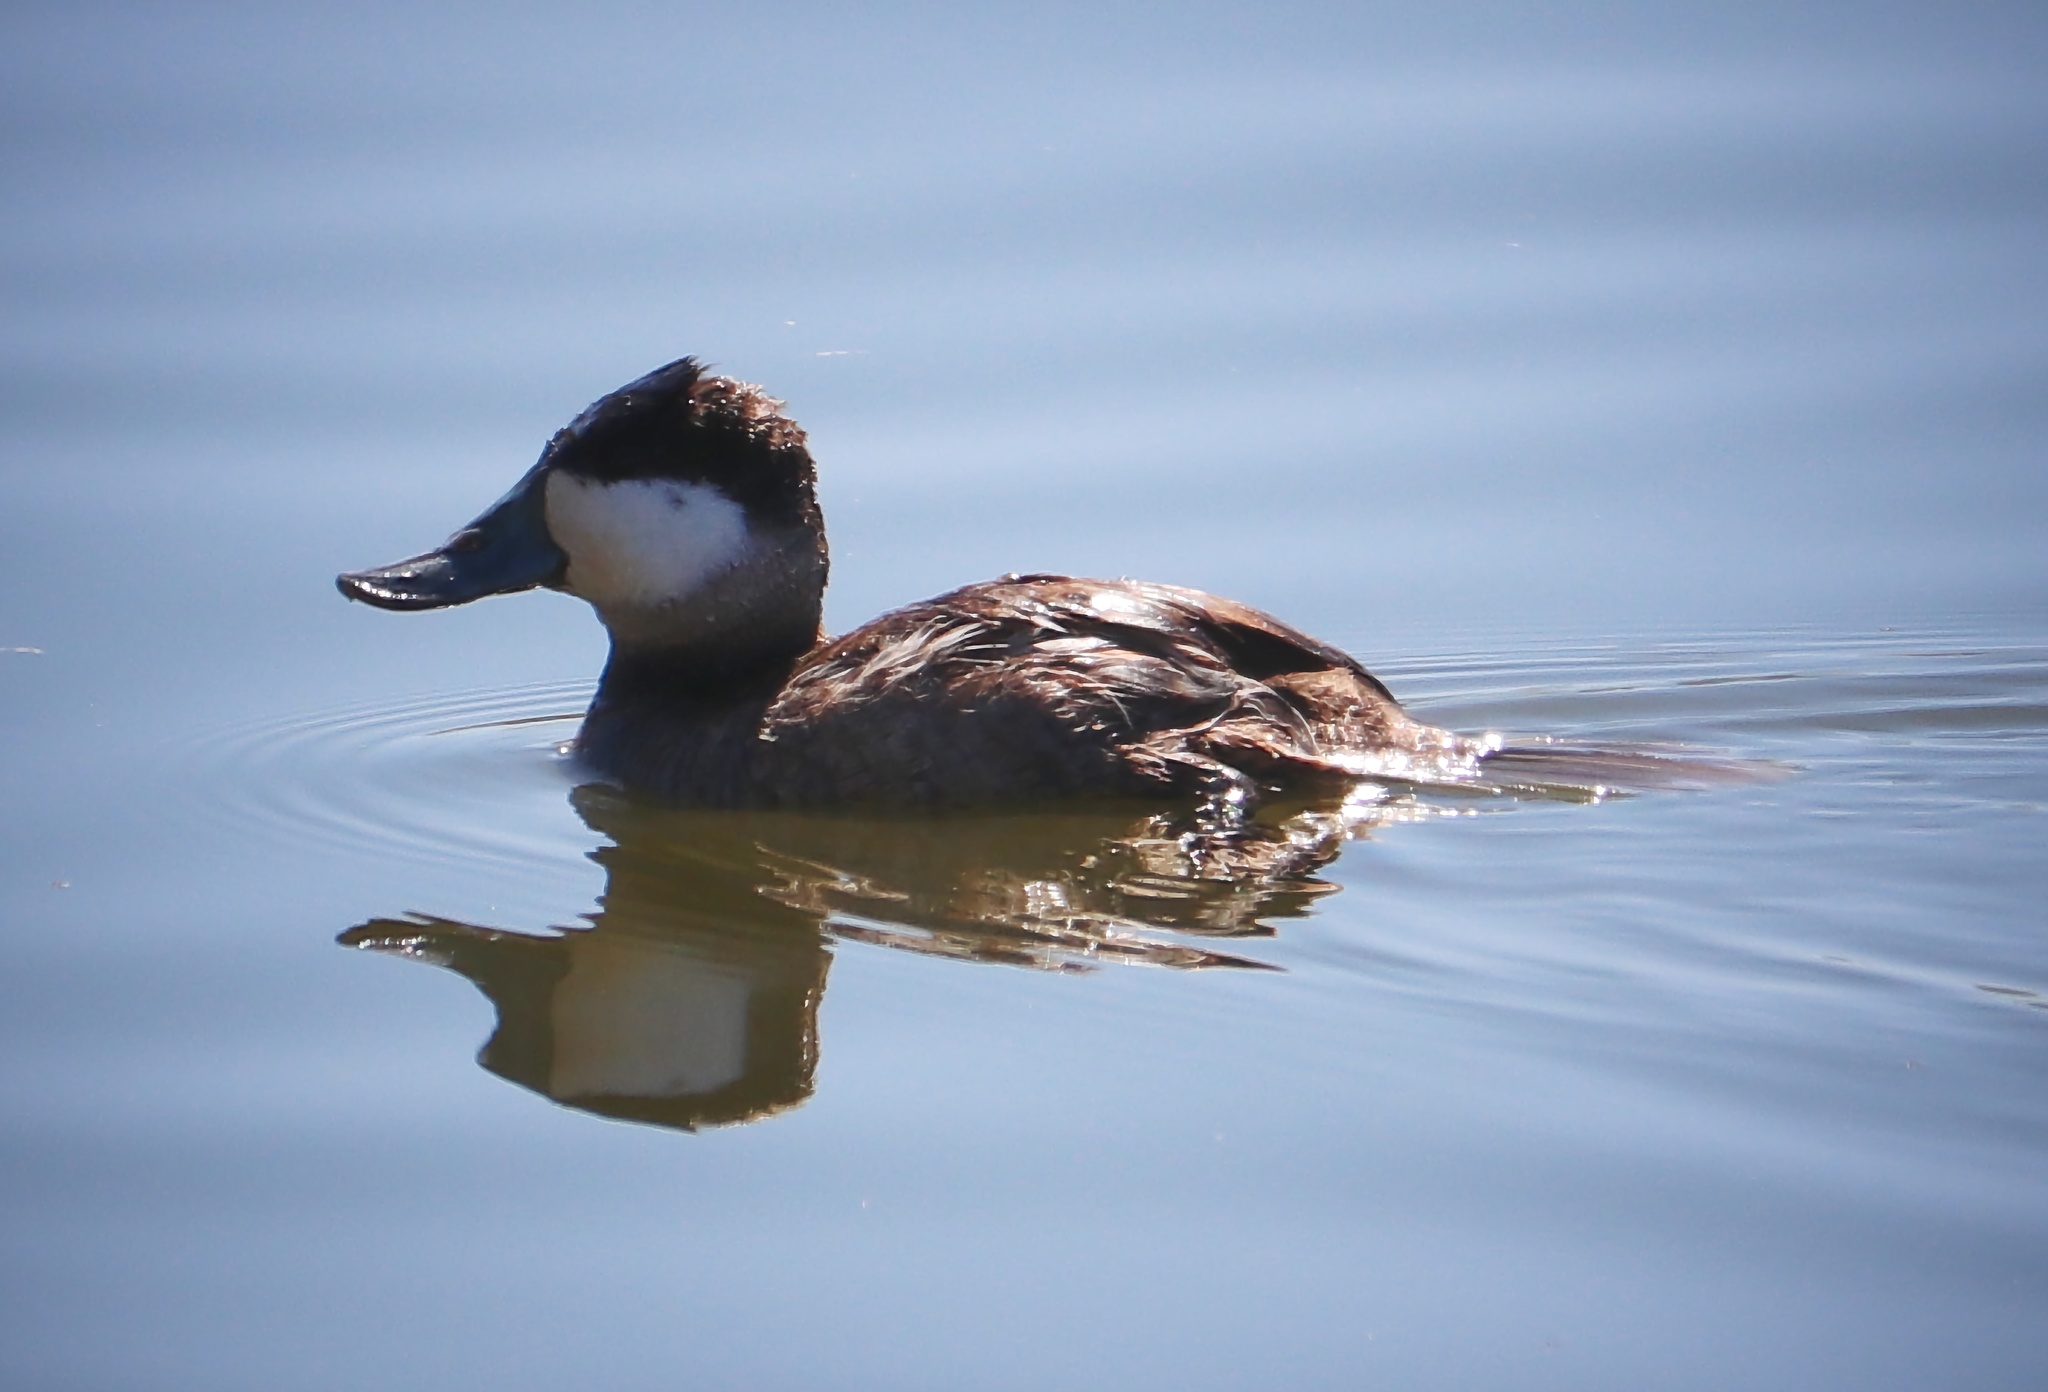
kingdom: Animalia
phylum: Chordata
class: Aves
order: Anseriformes
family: Anatidae
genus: Oxyura
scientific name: Oxyura jamaicensis
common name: Ruddy duck
